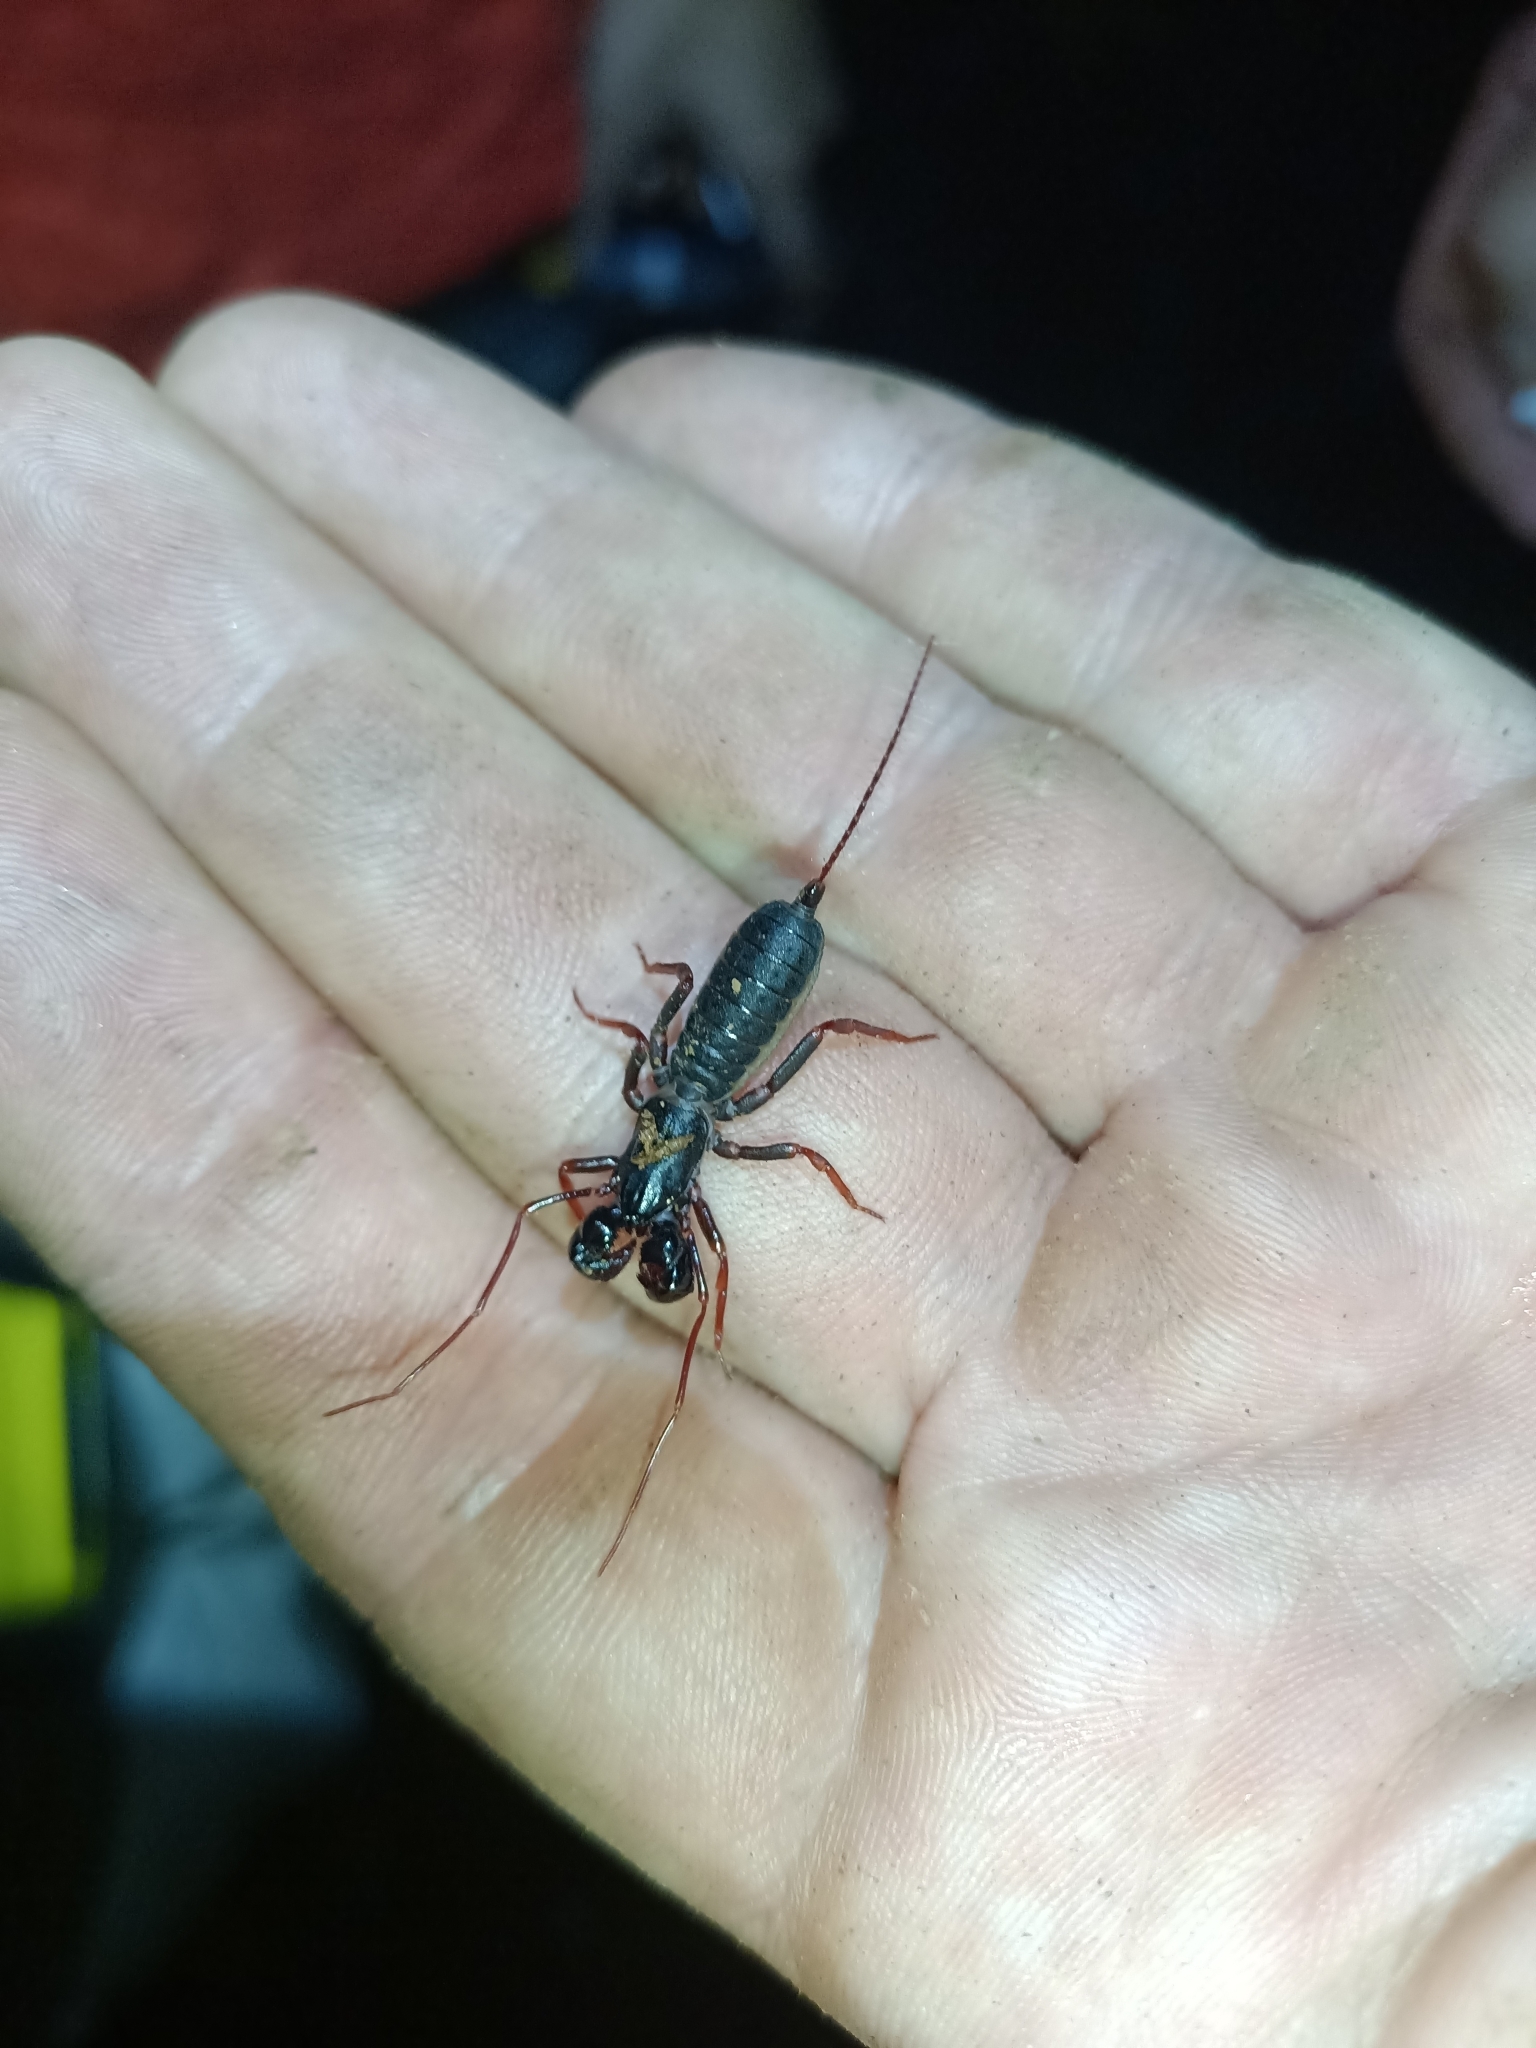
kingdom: Animalia
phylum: Arthropoda
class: Arachnida
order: Uropygi
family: Thelyphonidae
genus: Thelyphonellus
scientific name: Thelyphonellus amazonicus
